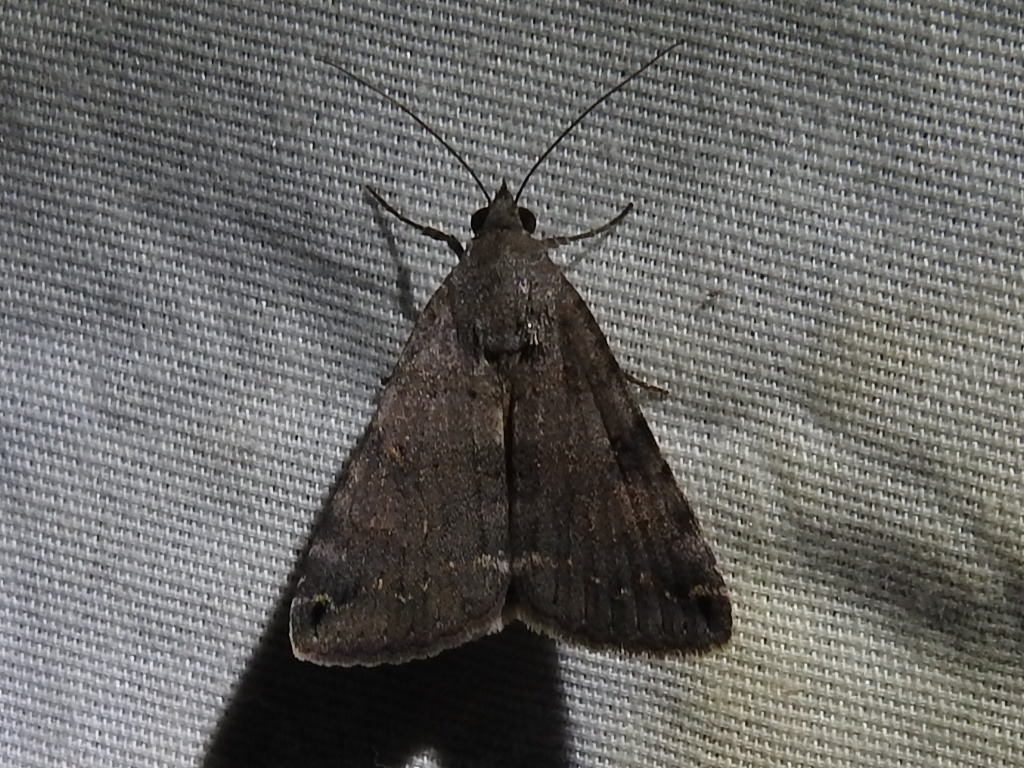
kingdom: Animalia
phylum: Arthropoda
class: Insecta
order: Lepidoptera
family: Erebidae
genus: Bulia
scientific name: Bulia deducta
